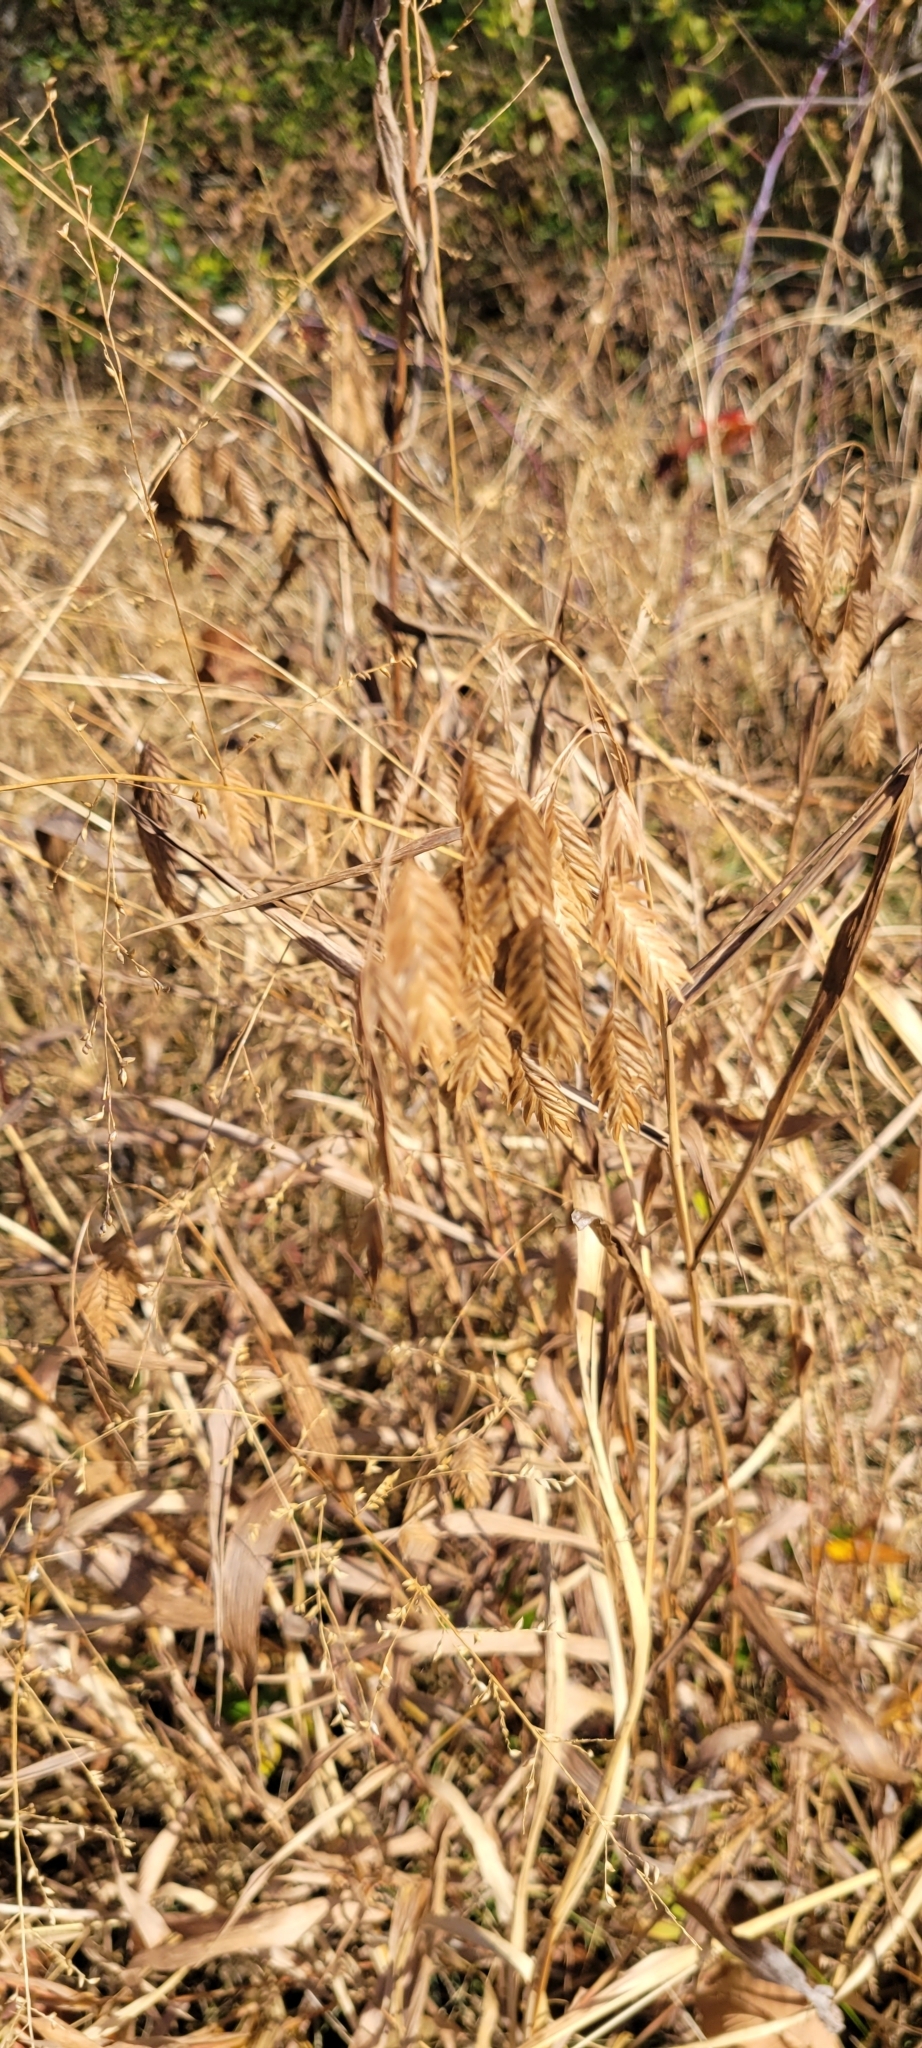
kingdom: Plantae
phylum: Tracheophyta
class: Liliopsida
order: Poales
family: Poaceae
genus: Chasmanthium
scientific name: Chasmanthium latifolium
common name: Broad-leaved chasmanthium
